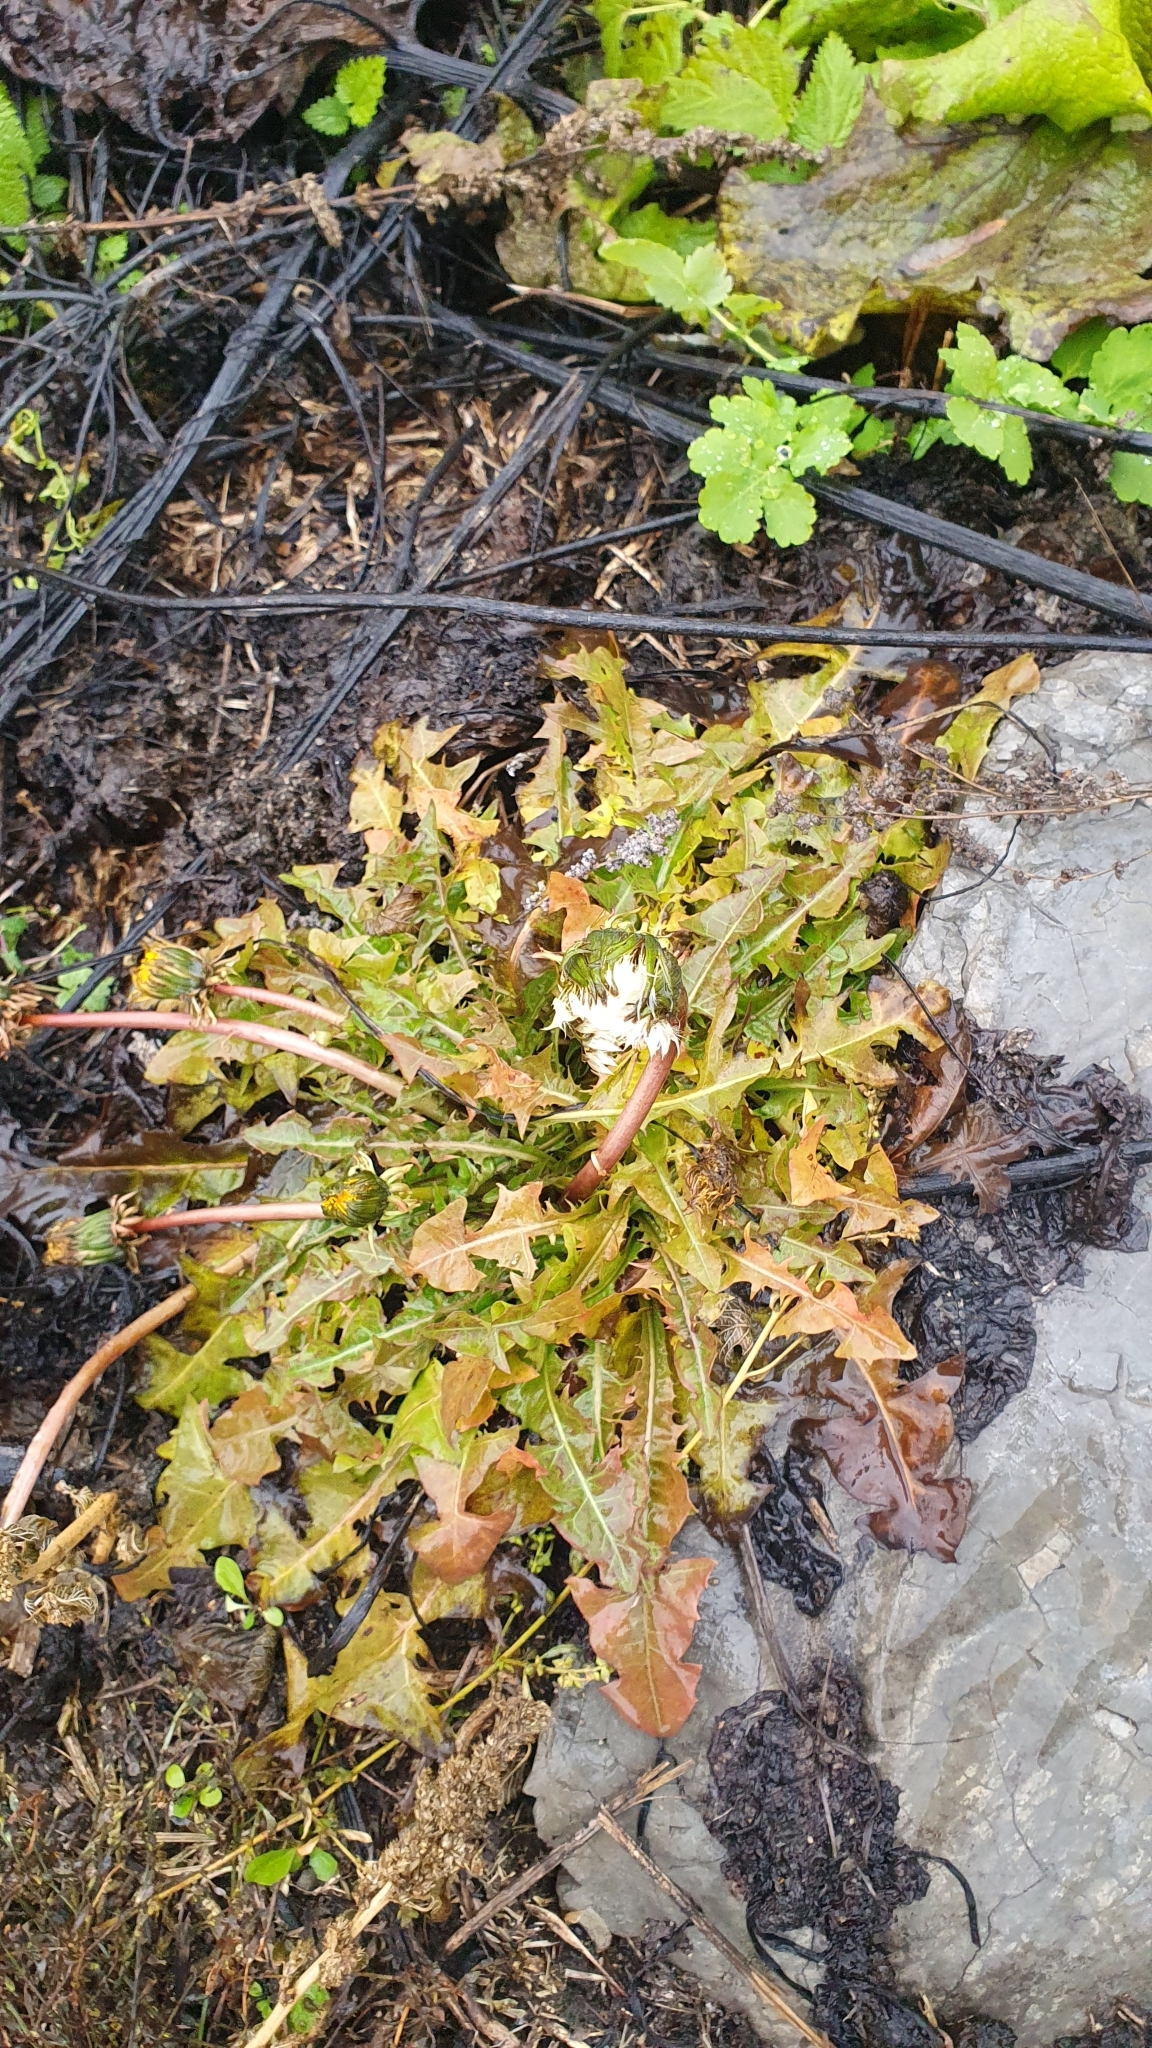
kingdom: Plantae
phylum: Tracheophyta
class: Magnoliopsida
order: Asterales
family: Asteraceae
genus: Taraxacum
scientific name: Taraxacum officinale
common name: Common dandelion
